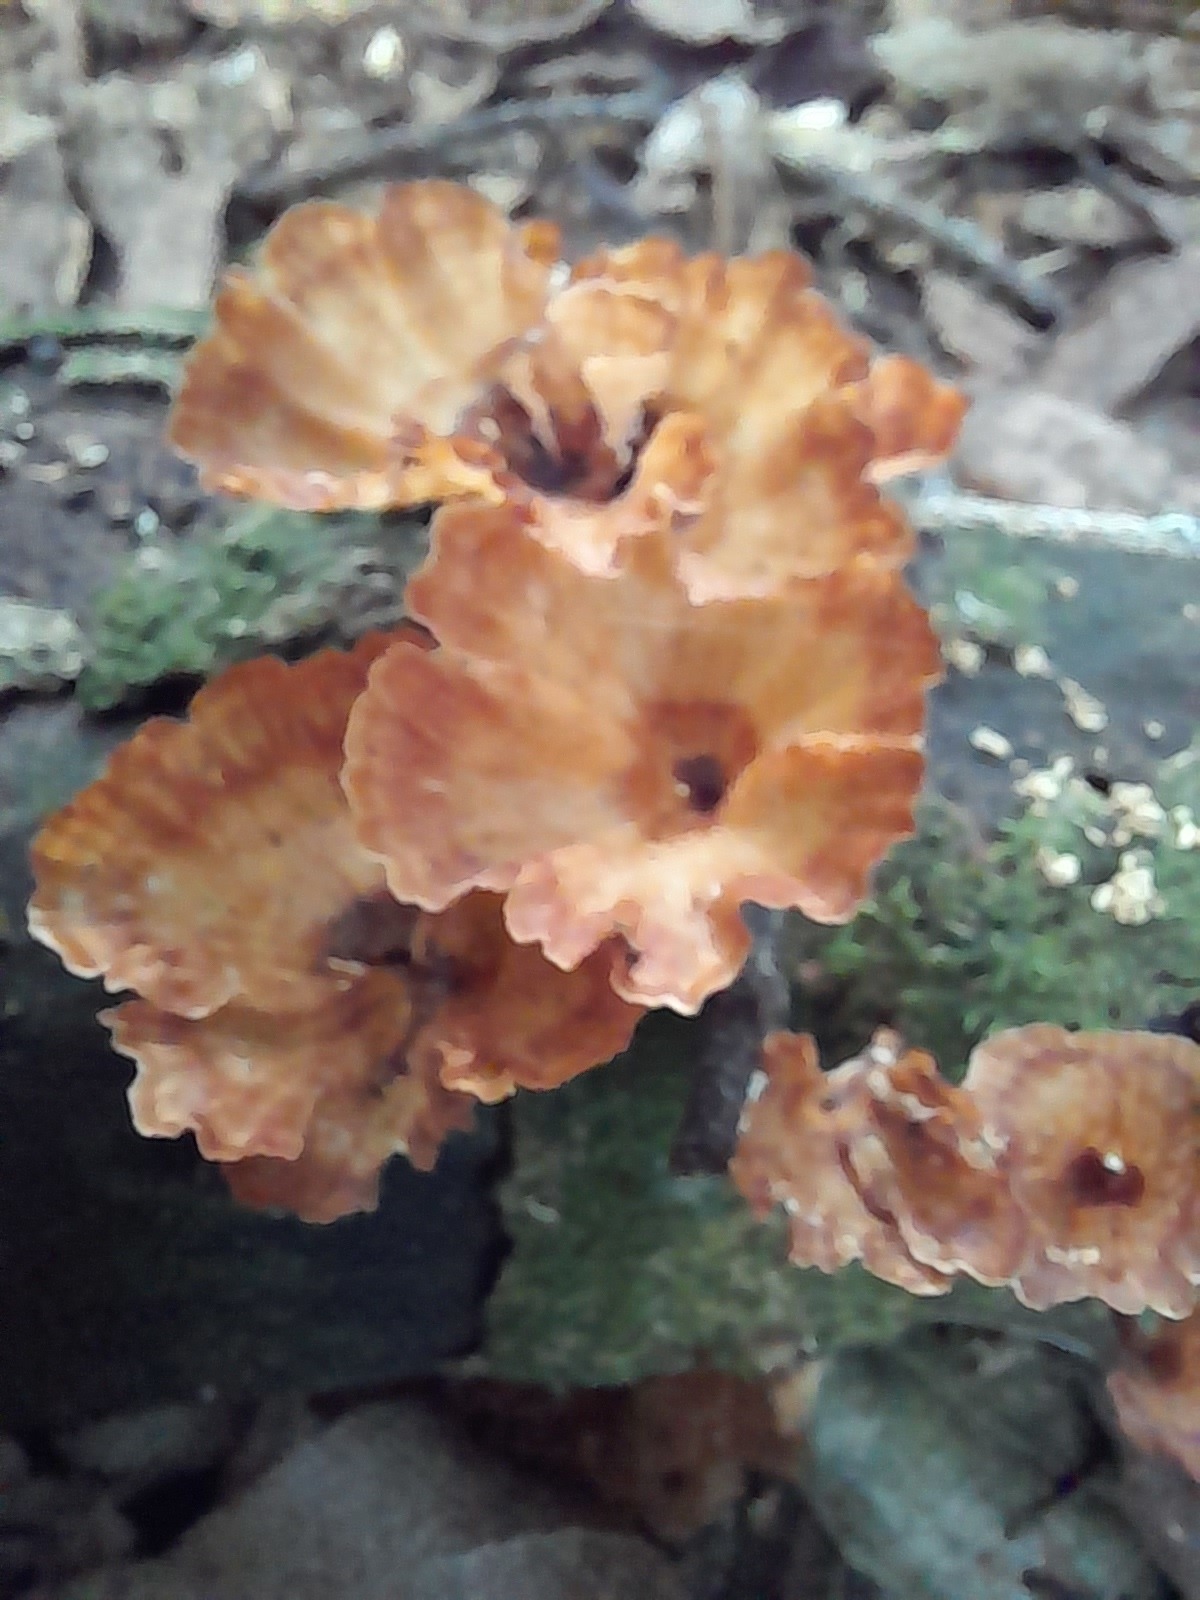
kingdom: Fungi
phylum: Basidiomycota
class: Agaricomycetes
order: Polyporales
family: Podoscyphaceae
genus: Podoscypha
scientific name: Podoscypha petalodes
